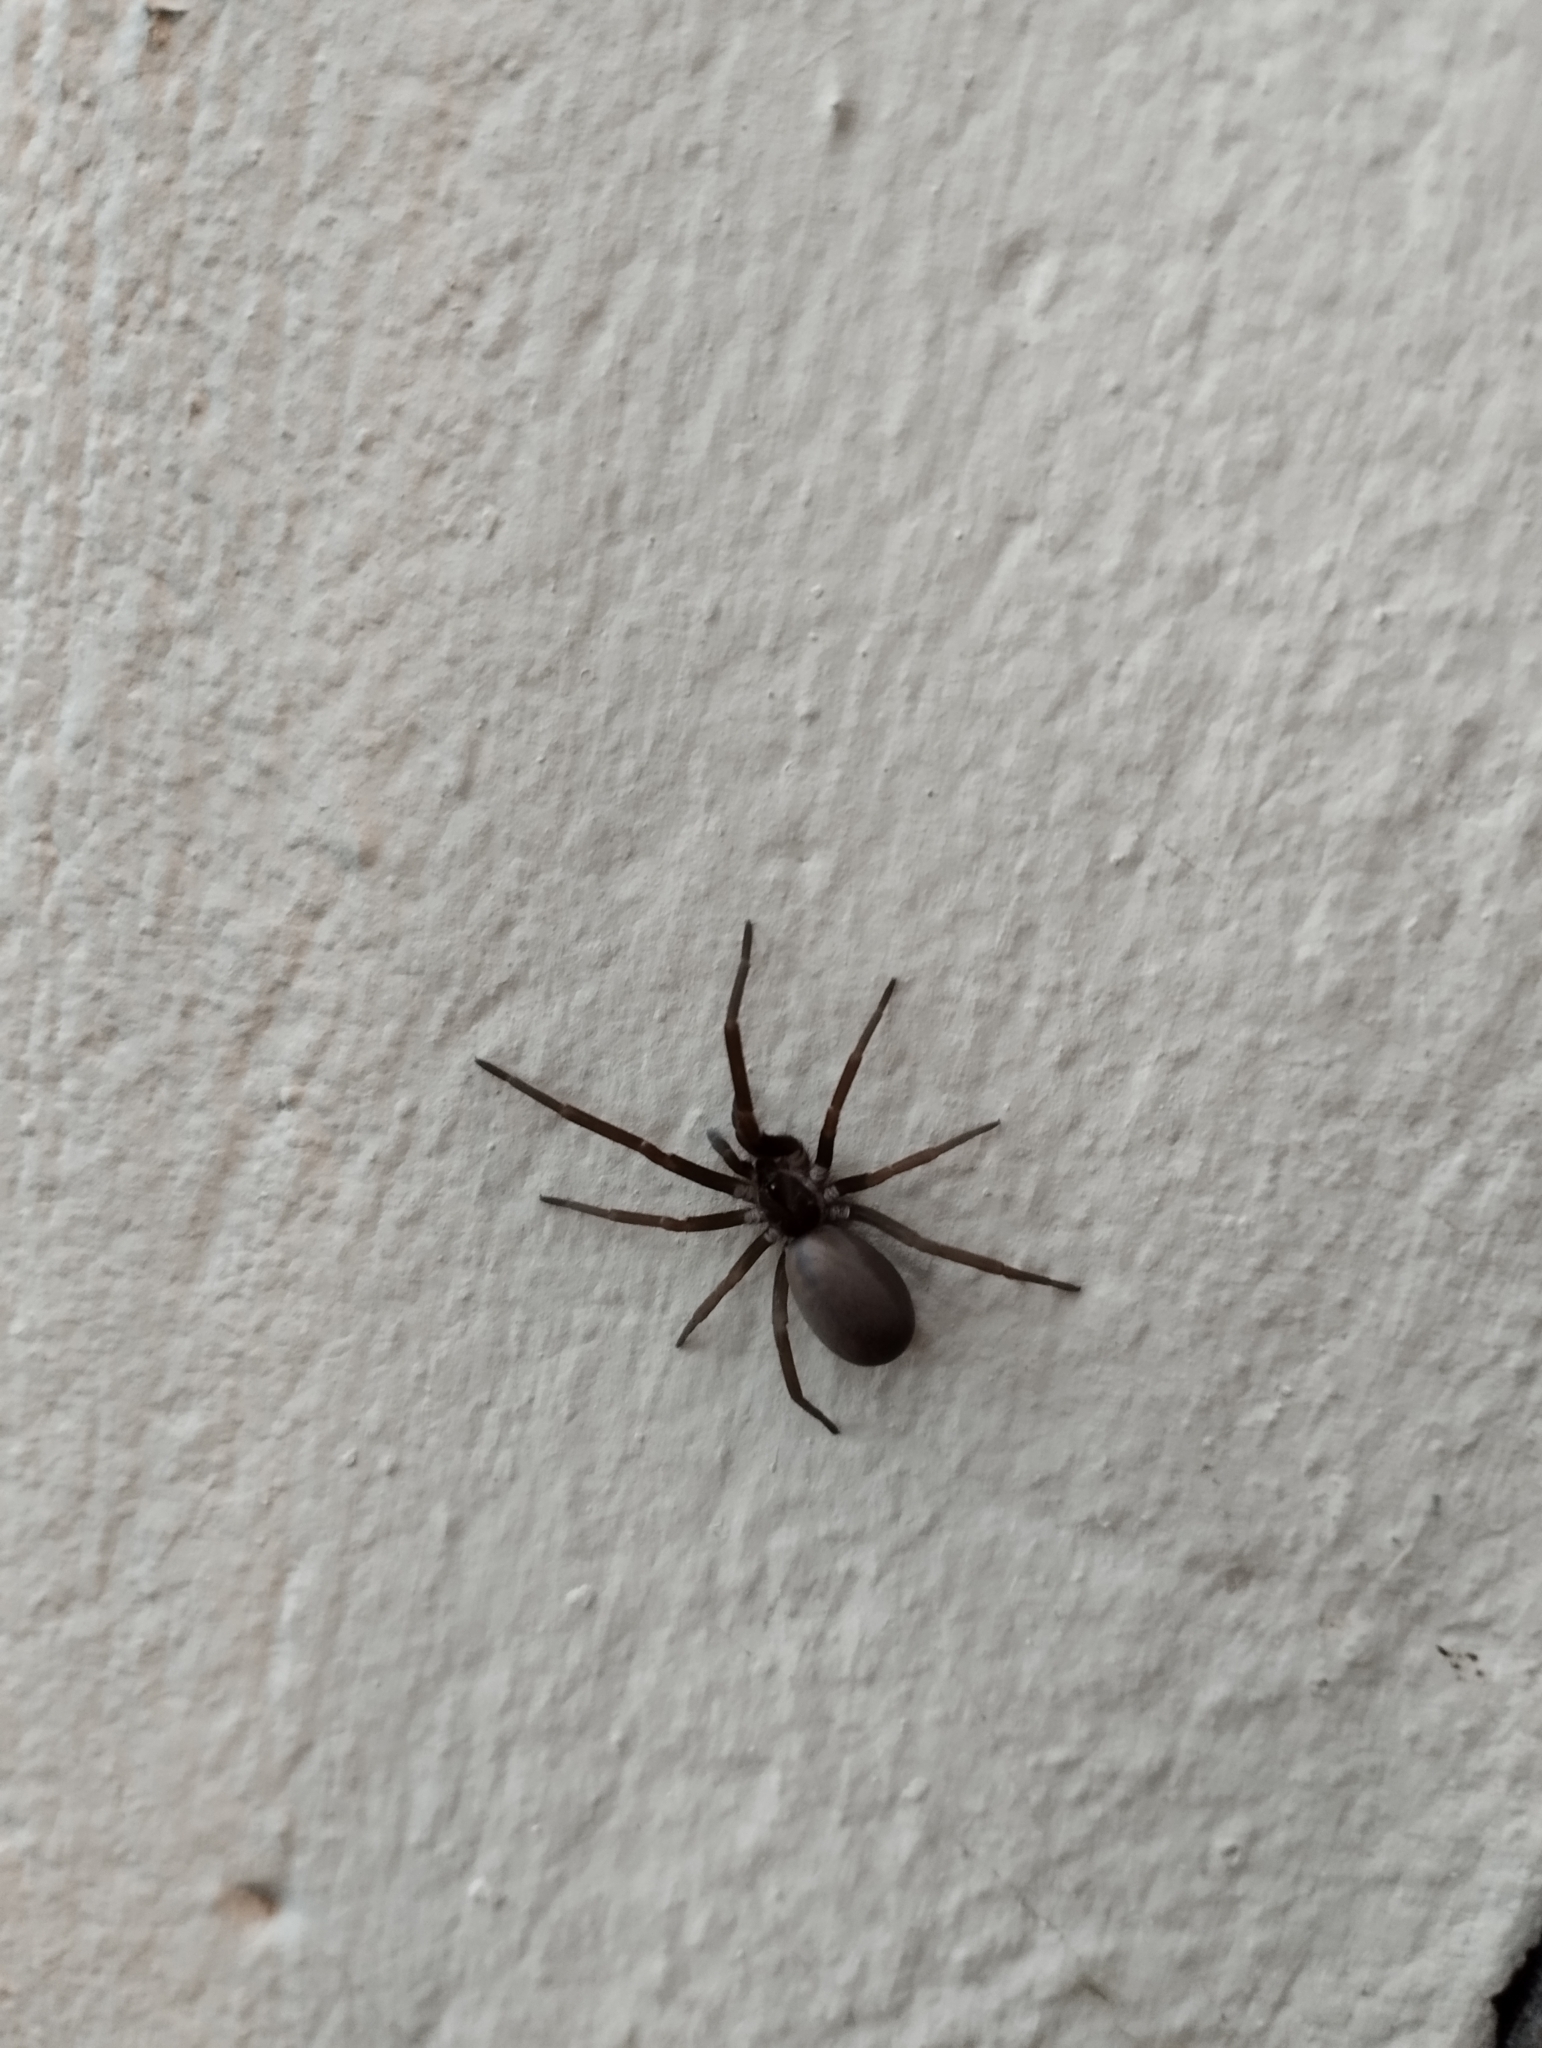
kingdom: Animalia
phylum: Arthropoda
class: Arachnida
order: Araneae
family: Filistatidae
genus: Kukulcania
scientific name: Kukulcania hibernalis
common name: Crevice weaver
